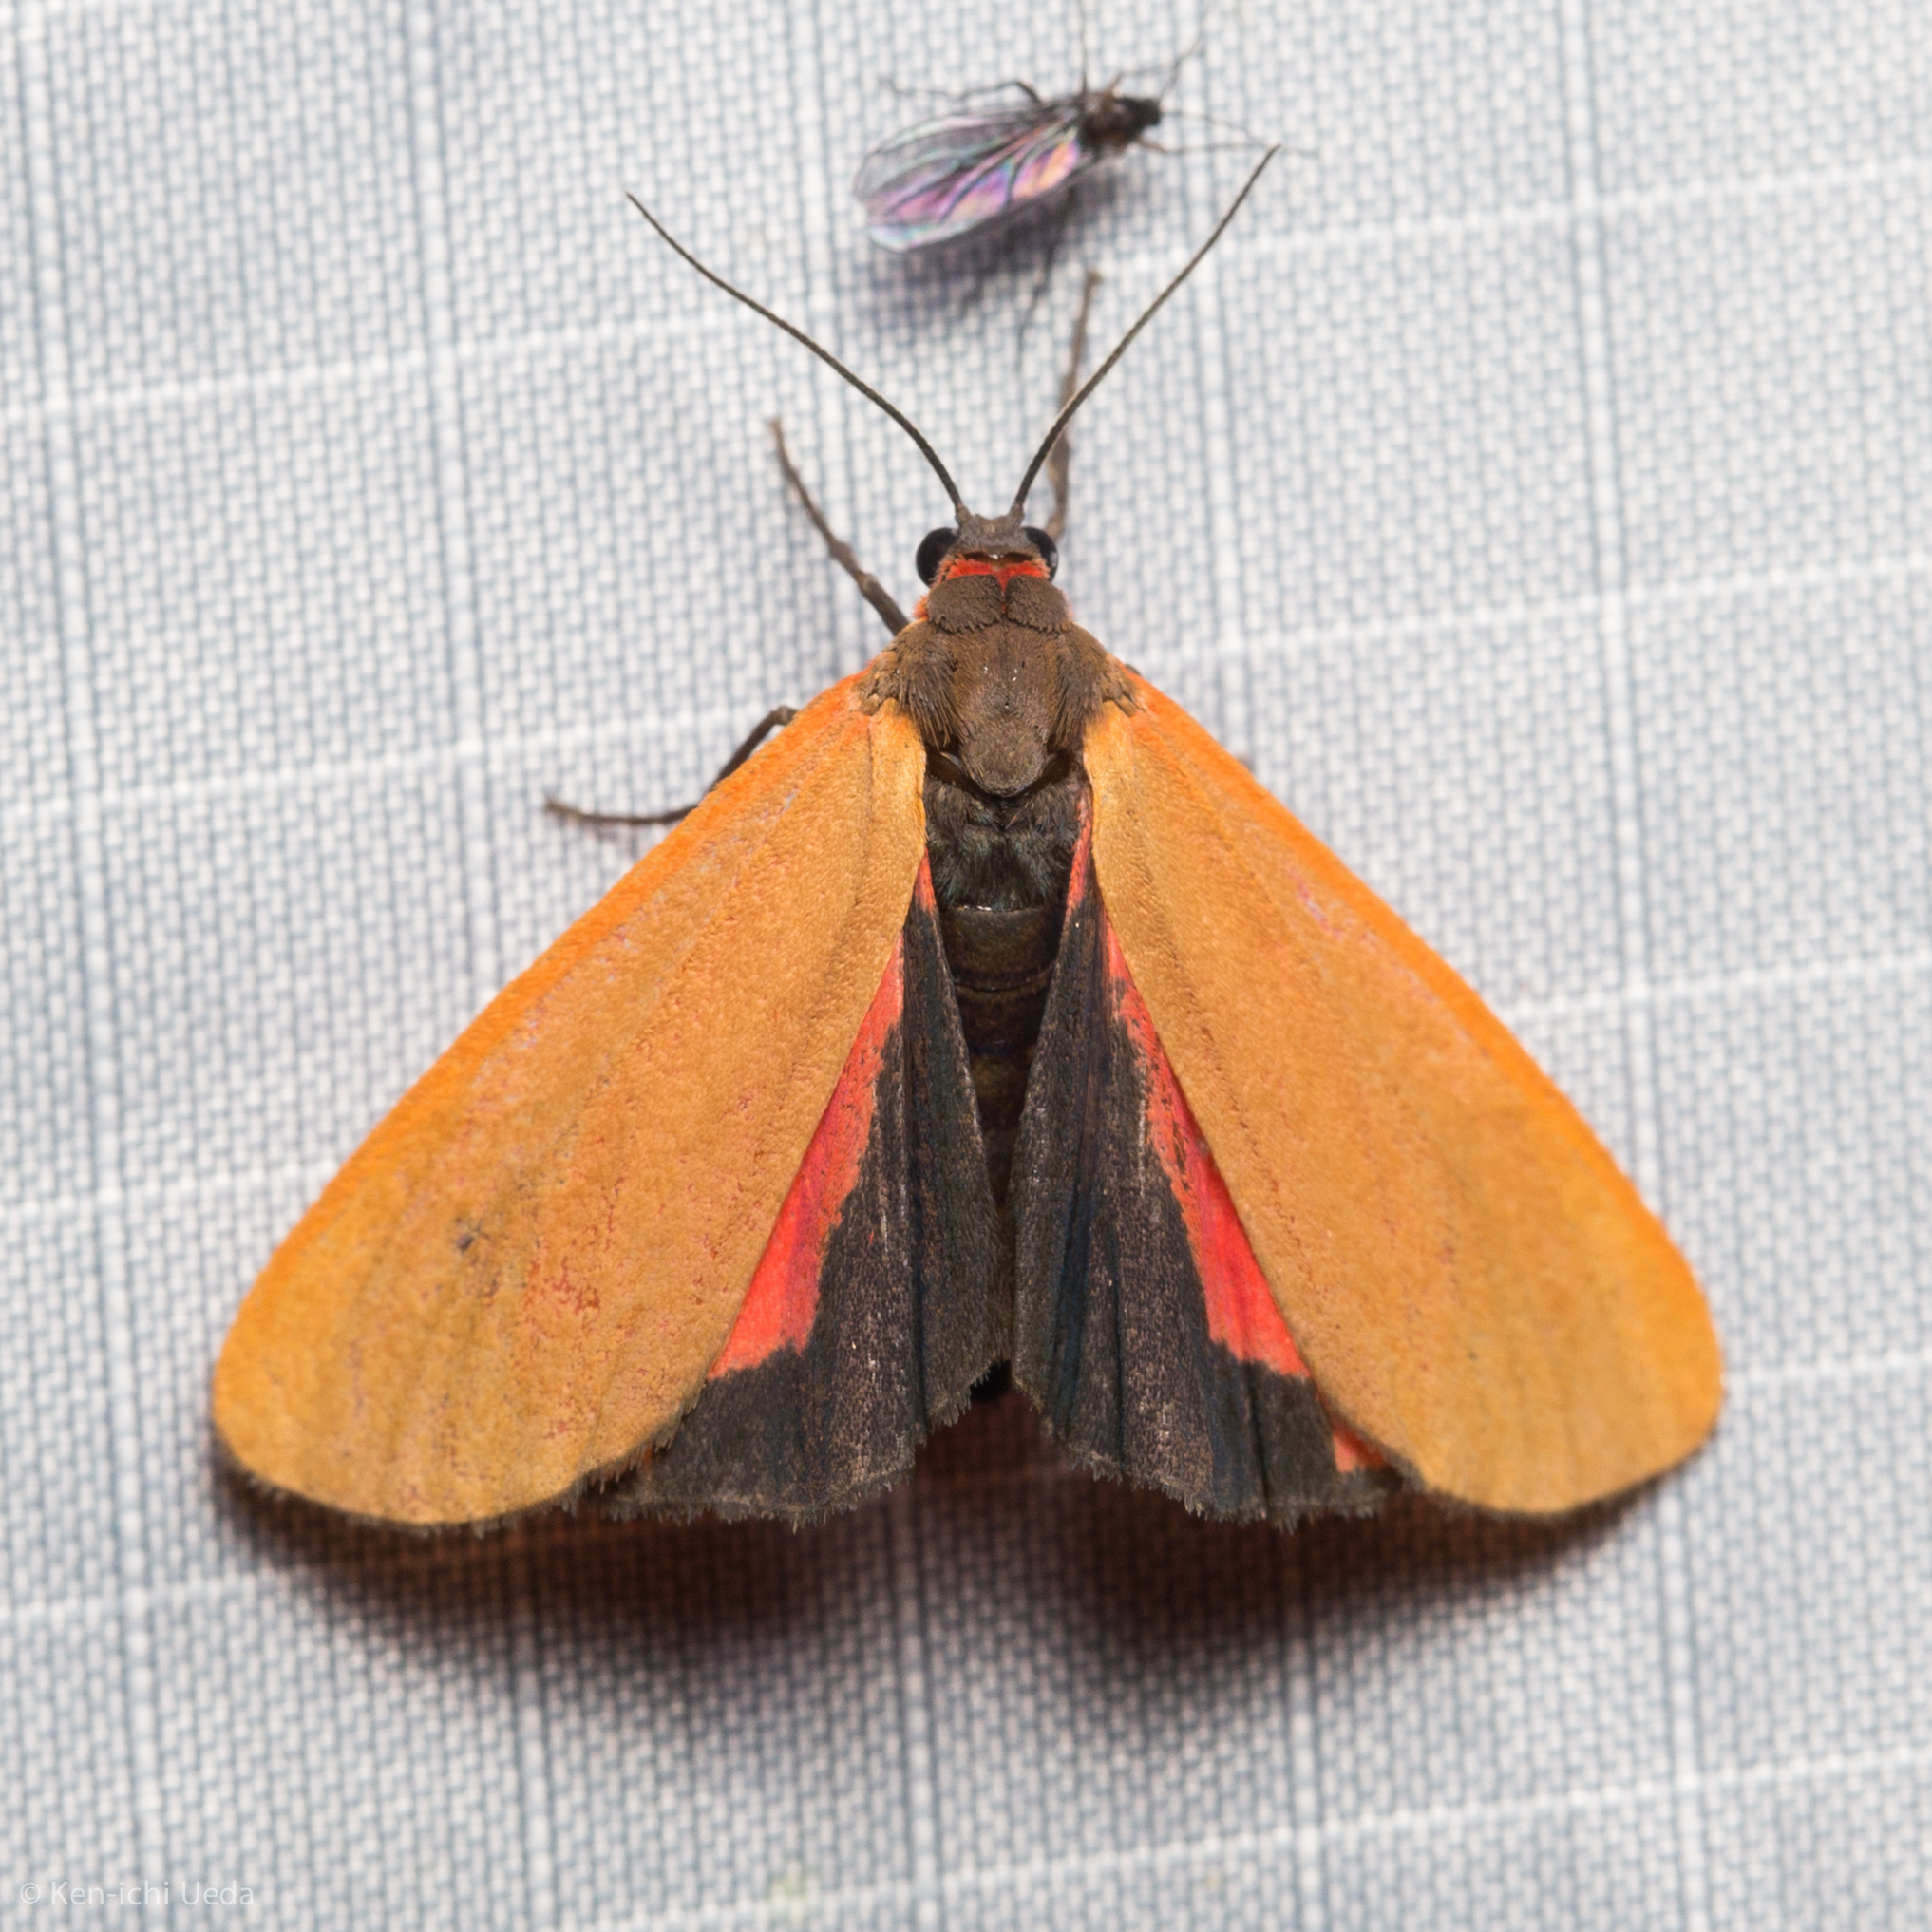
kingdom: Animalia
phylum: Arthropoda
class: Insecta
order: Lepidoptera
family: Erebidae
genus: Virbia
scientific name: Virbia ostenta
